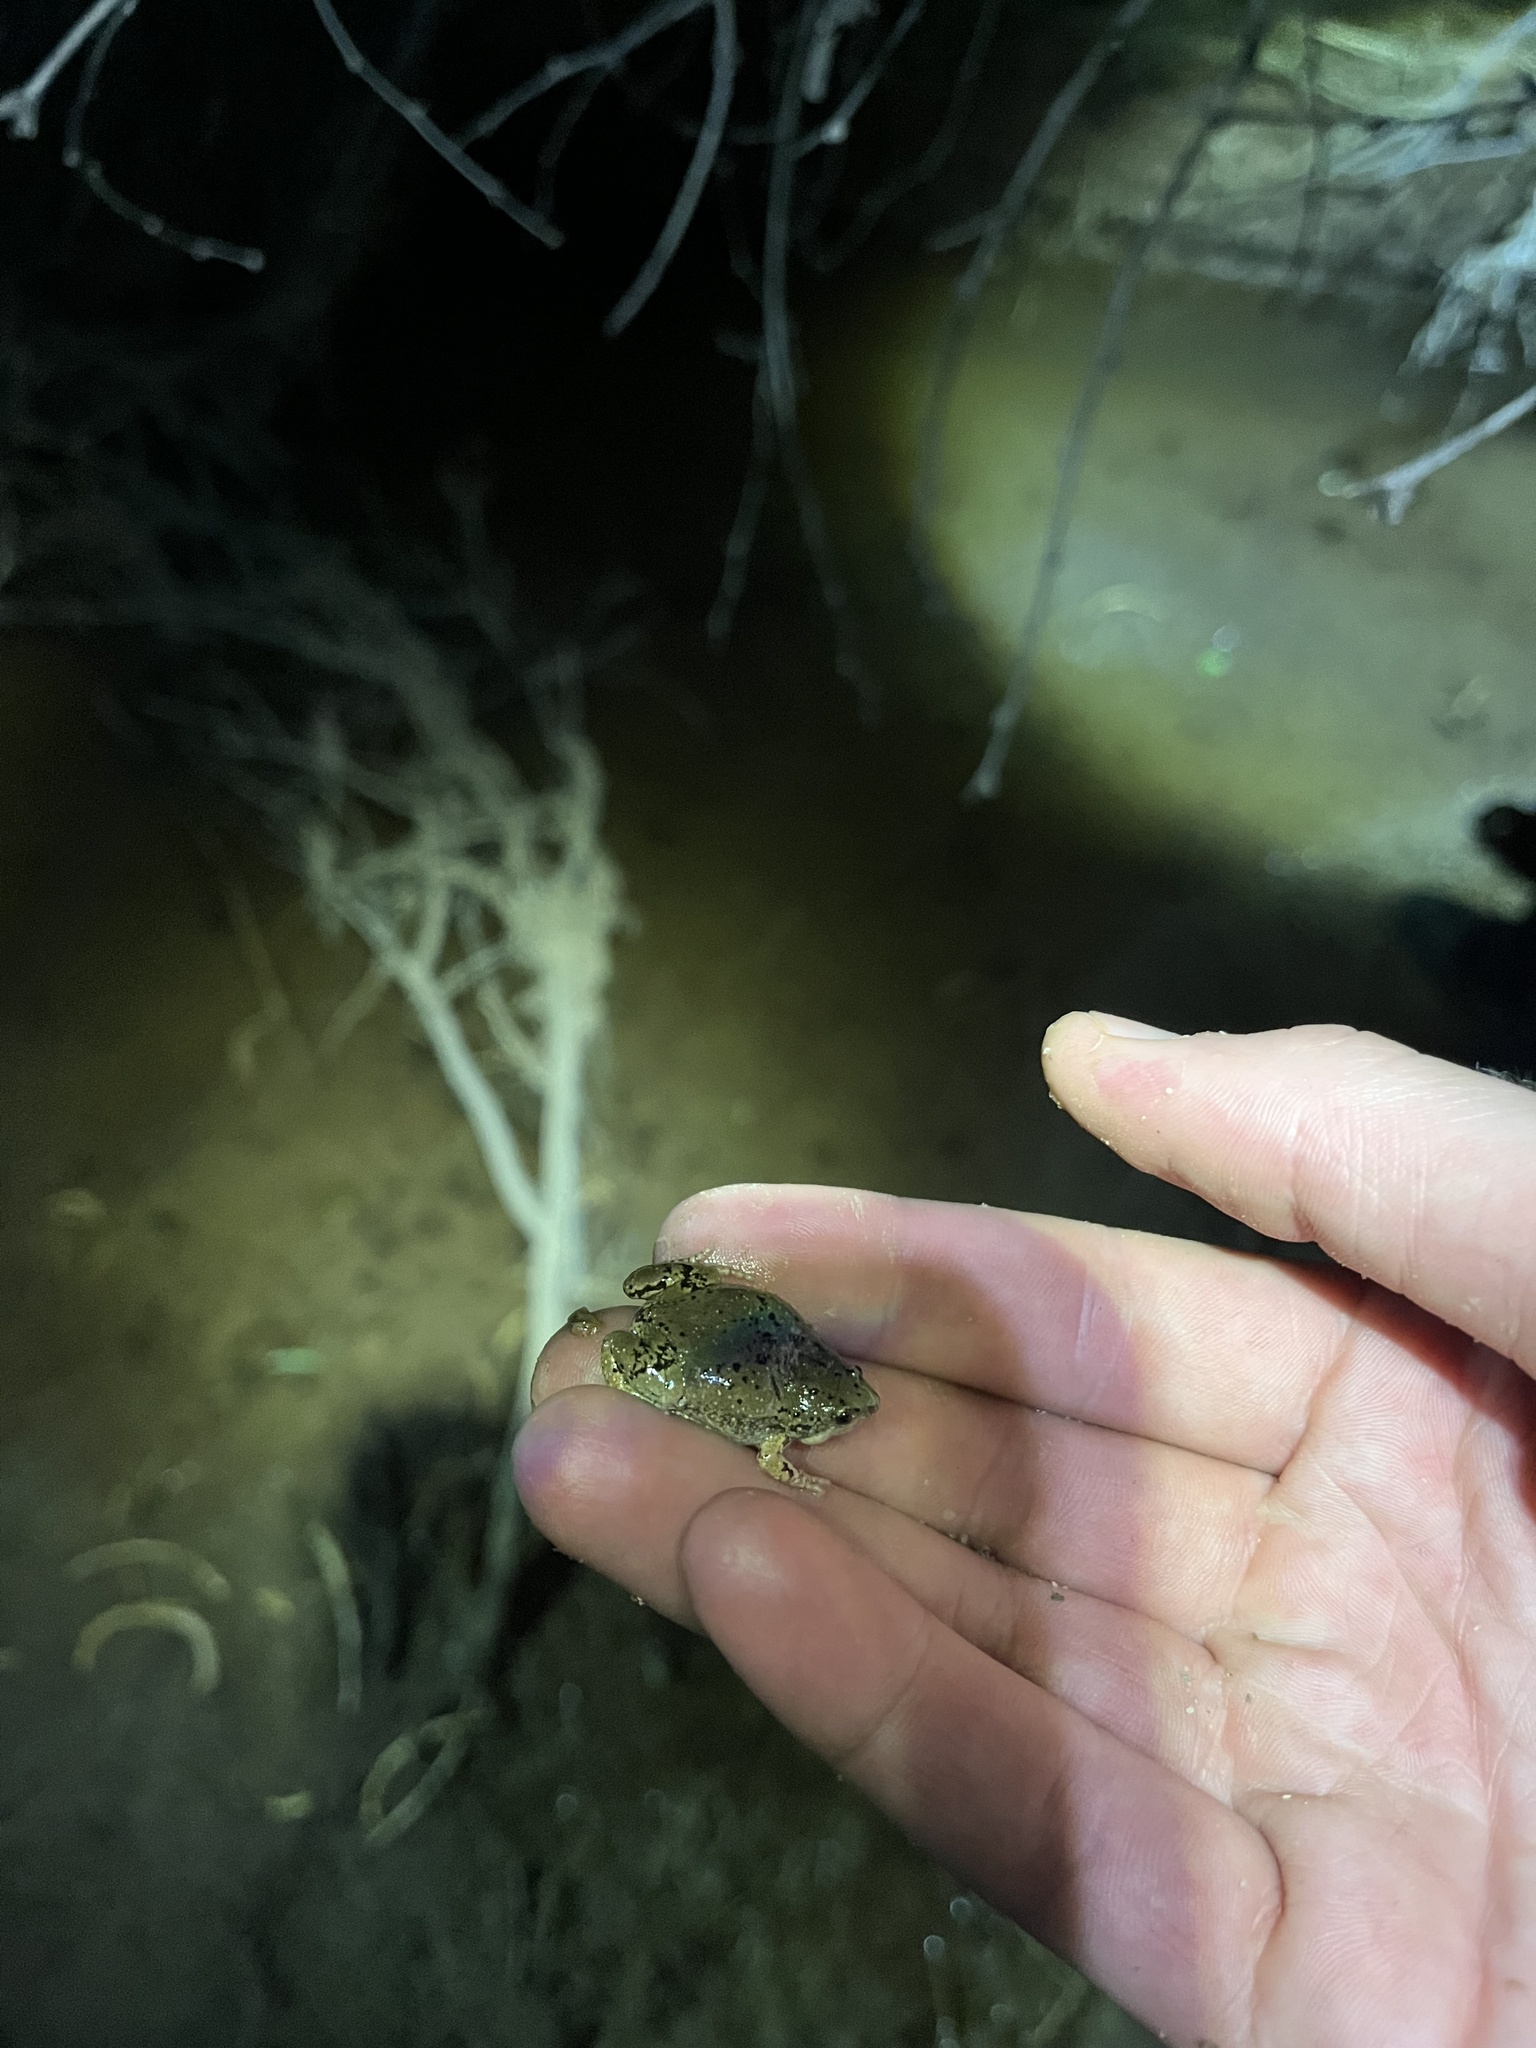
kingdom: Animalia
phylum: Chordata
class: Amphibia
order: Anura
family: Microhylidae
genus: Gastrophryne
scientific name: Gastrophryne mazatlanensis
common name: Sinaloan narrow-mouthed toad
